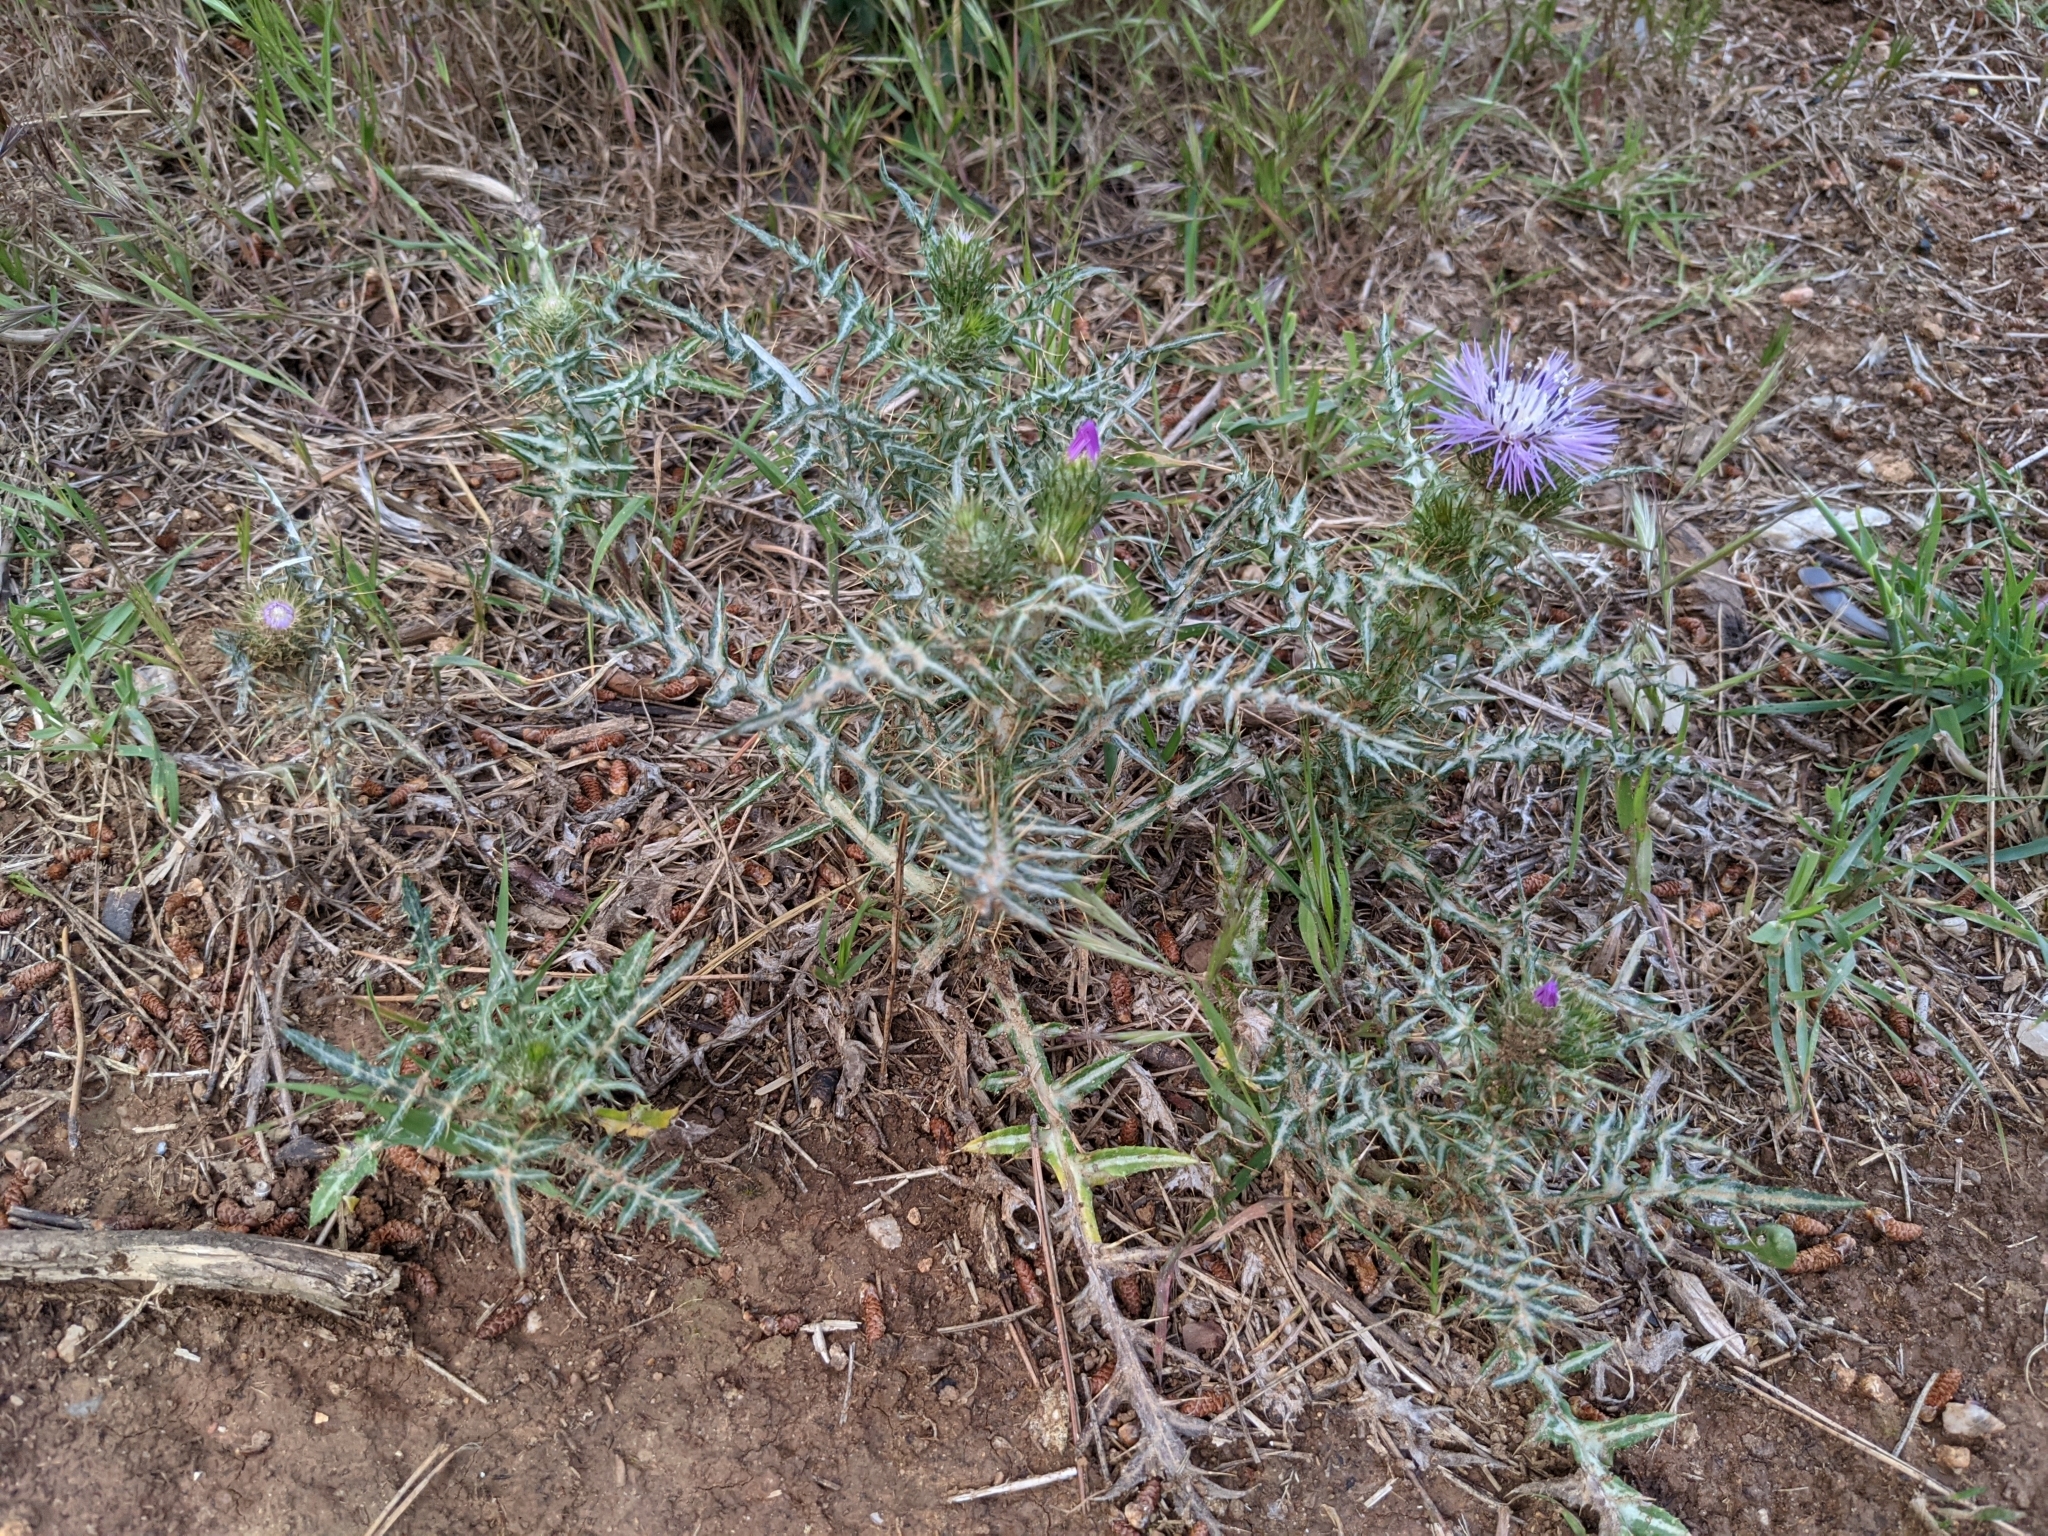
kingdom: Plantae
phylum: Tracheophyta
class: Magnoliopsida
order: Asterales
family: Asteraceae
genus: Galactites
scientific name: Galactites tomentosa
